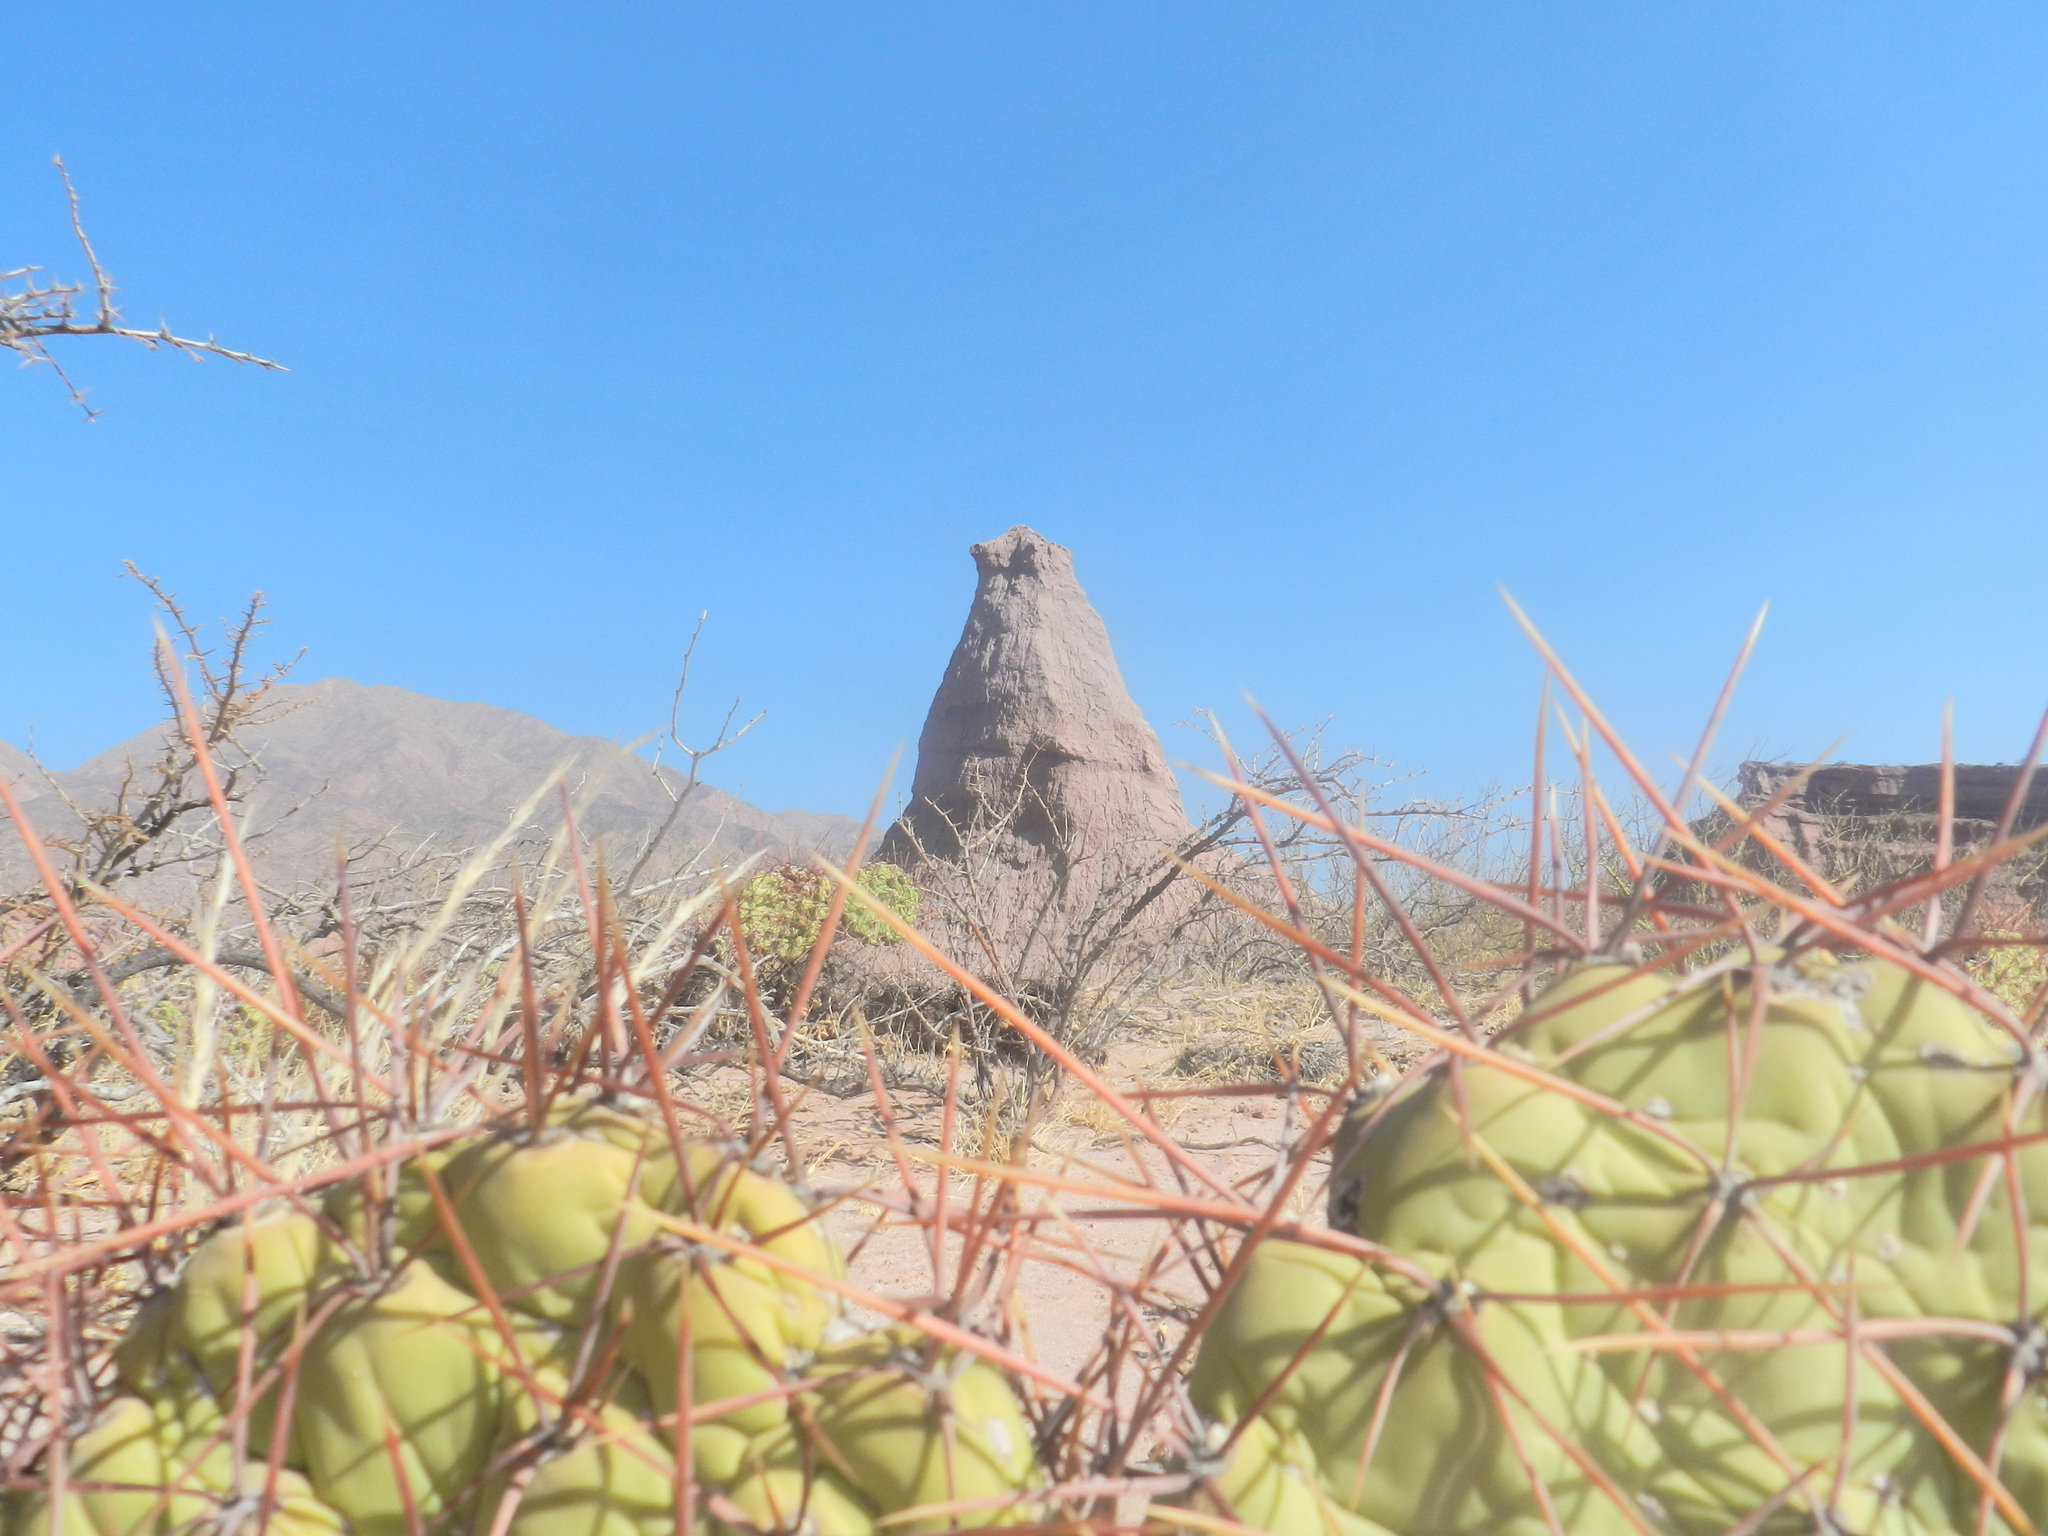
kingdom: Plantae
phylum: Tracheophyta
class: Magnoliopsida
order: Caryophyllales
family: Cactaceae
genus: Opuntia
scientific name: Opuntia sulphurea
